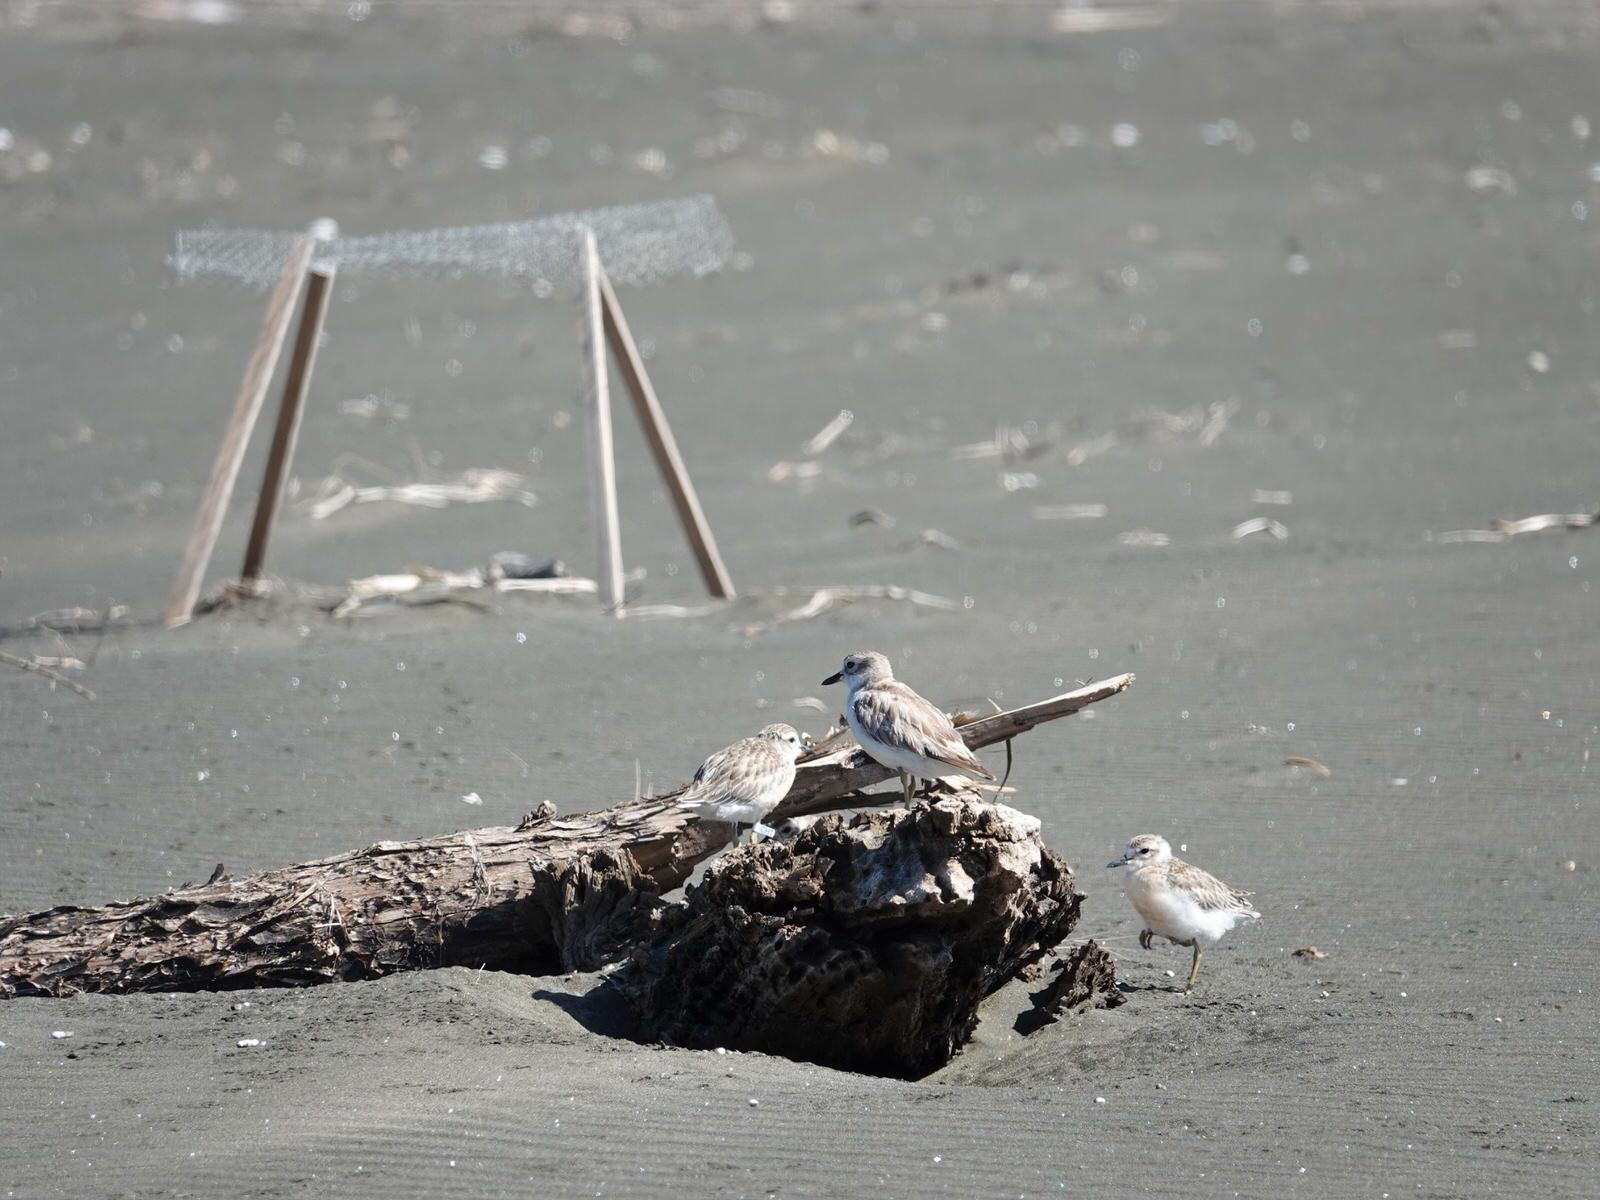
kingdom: Animalia
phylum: Chordata
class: Aves
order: Charadriiformes
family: Charadriidae
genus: Anarhynchus
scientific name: Anarhynchus
